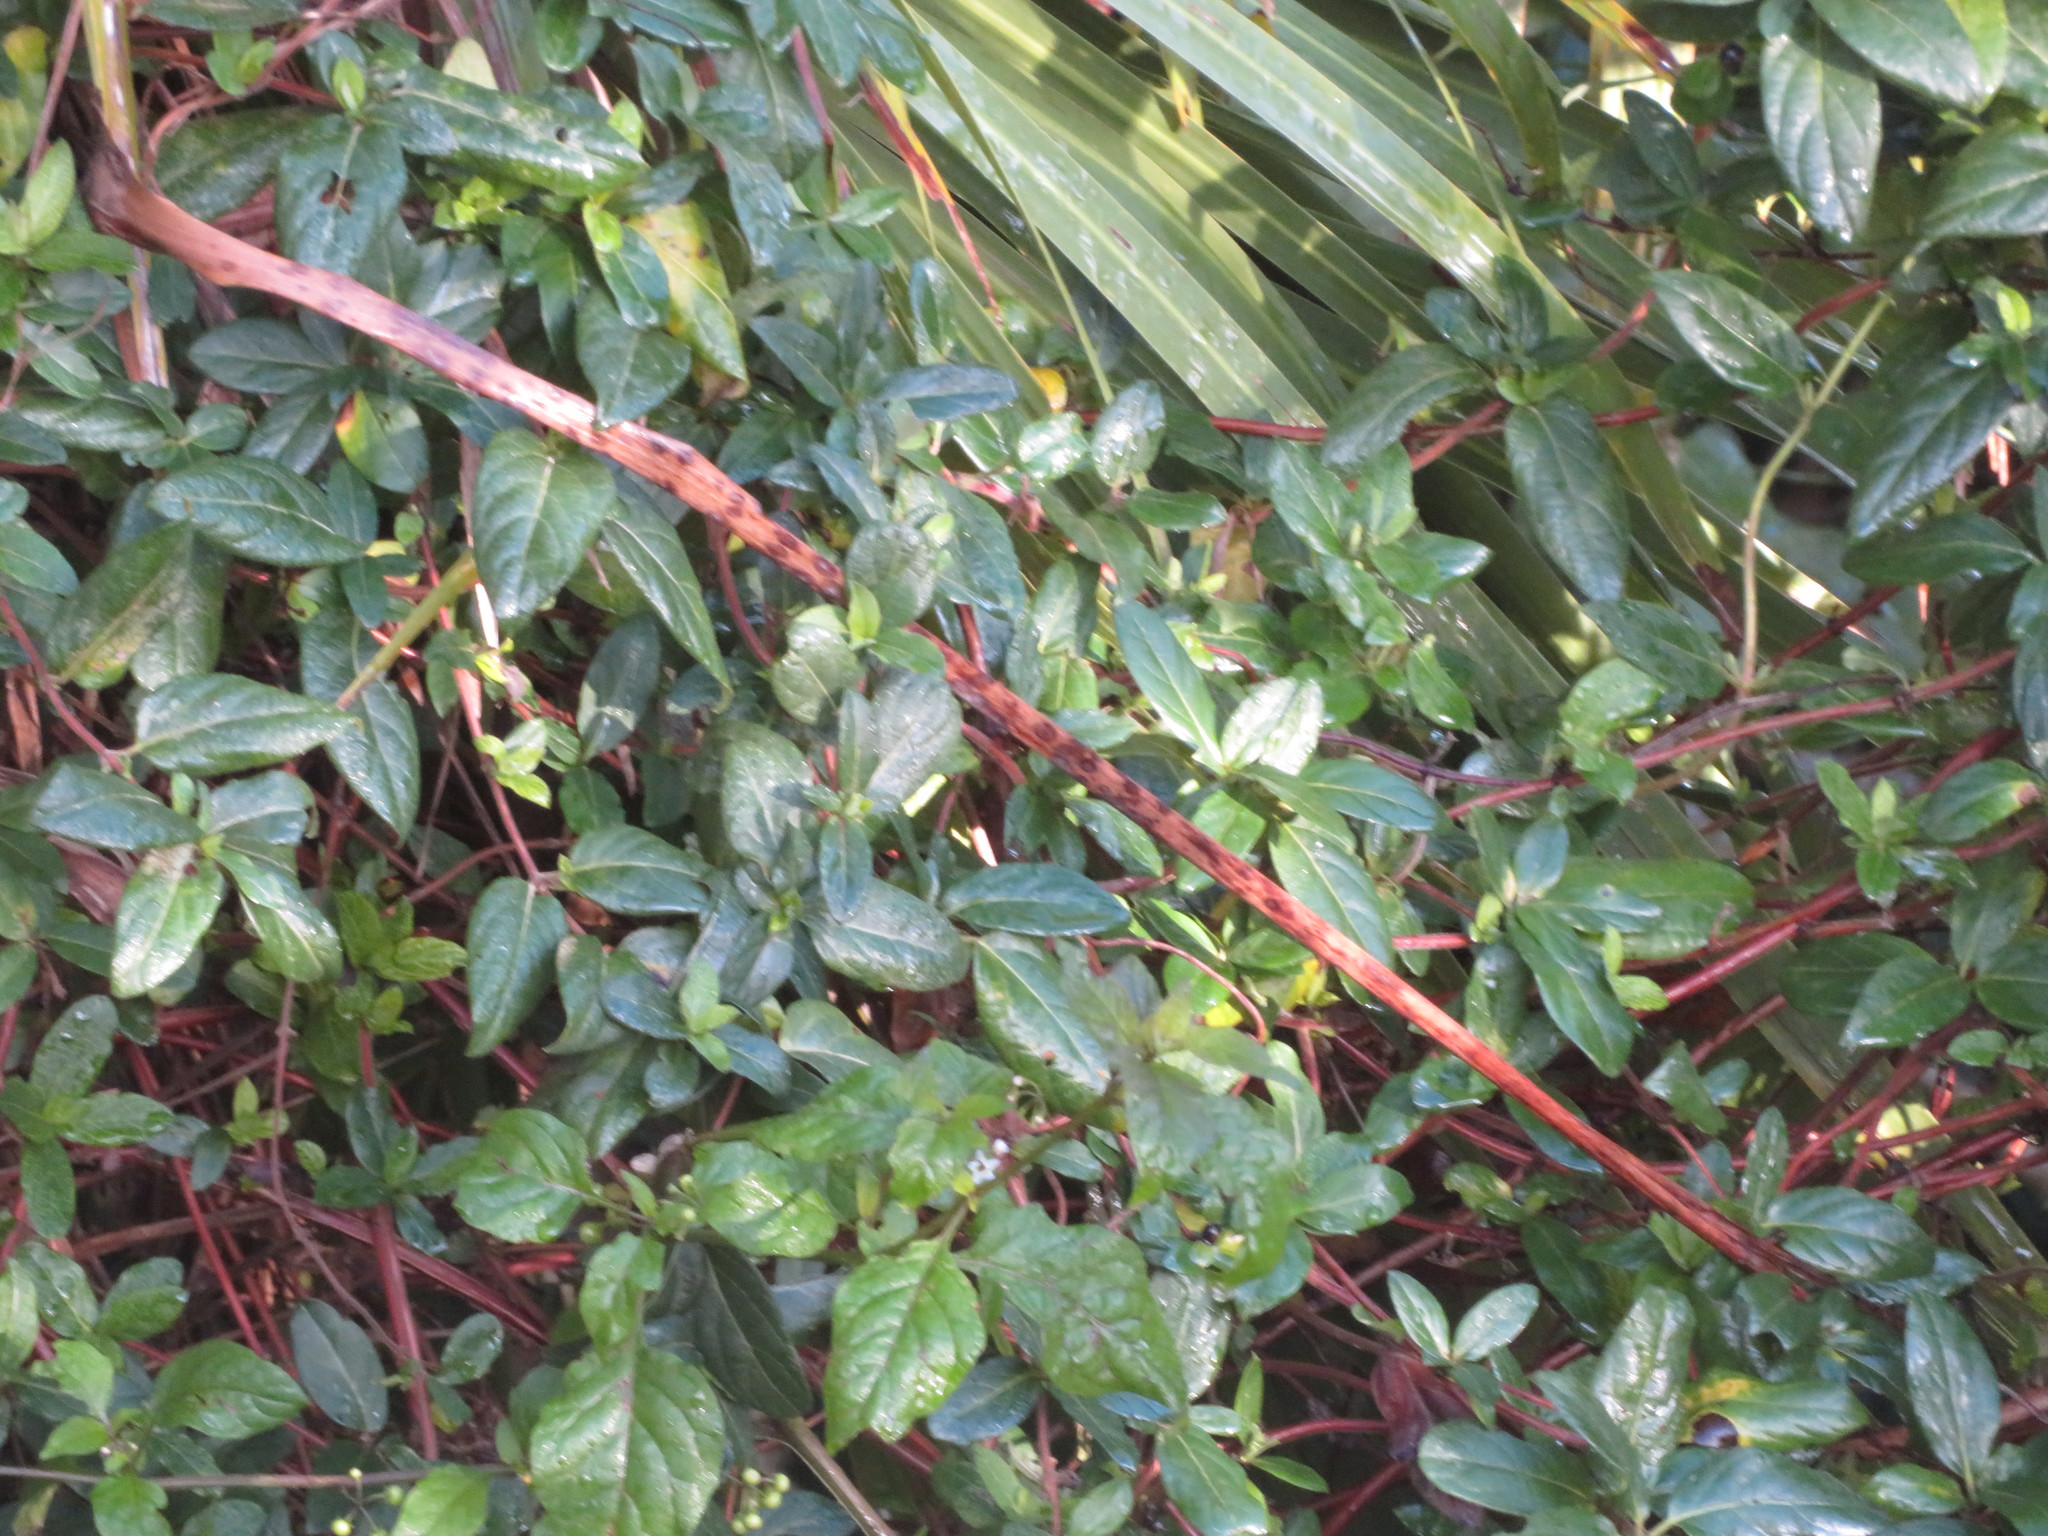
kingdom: Plantae
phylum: Tracheophyta
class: Magnoliopsida
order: Dipsacales
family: Caprifoliaceae
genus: Lonicera
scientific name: Lonicera japonica
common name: Japanese honeysuckle
